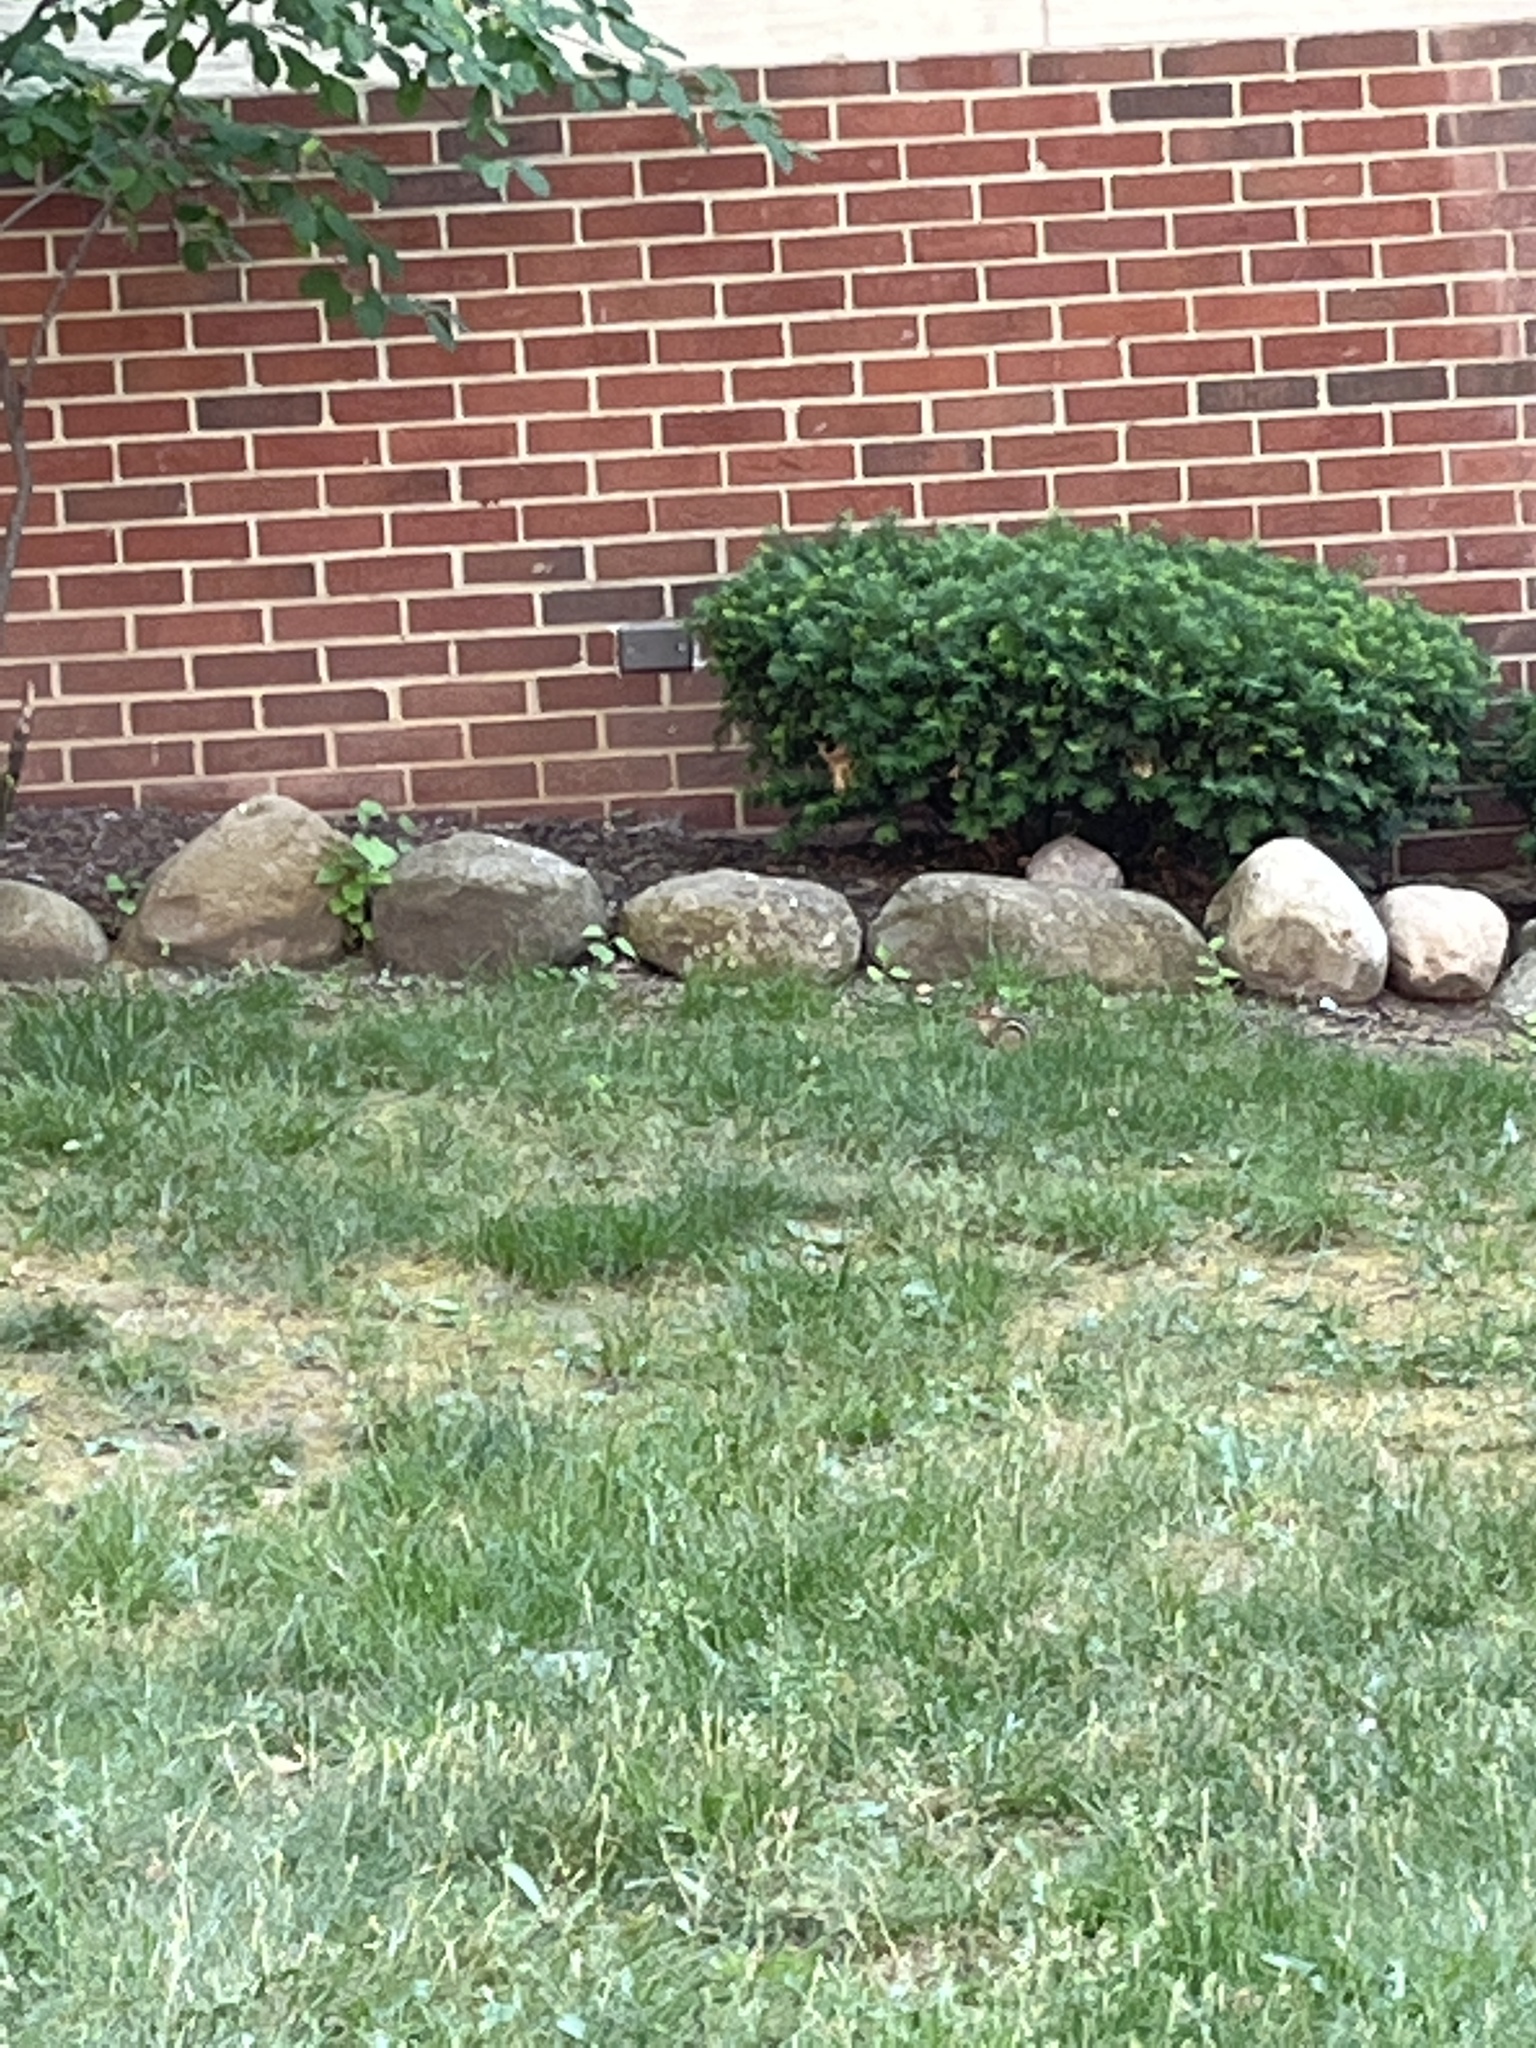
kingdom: Animalia
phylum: Chordata
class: Mammalia
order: Rodentia
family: Sciuridae
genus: Tamias
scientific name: Tamias striatus
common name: Eastern chipmunk
